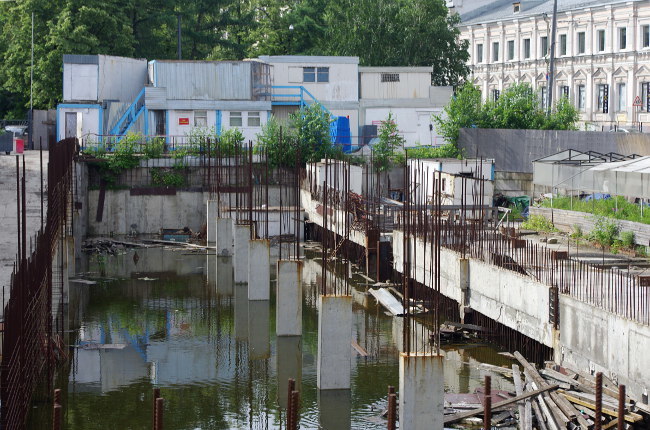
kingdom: Animalia
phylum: Chordata
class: Aves
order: Anseriformes
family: Anatidae
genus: Anas
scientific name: Anas platyrhynchos
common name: Mallard
